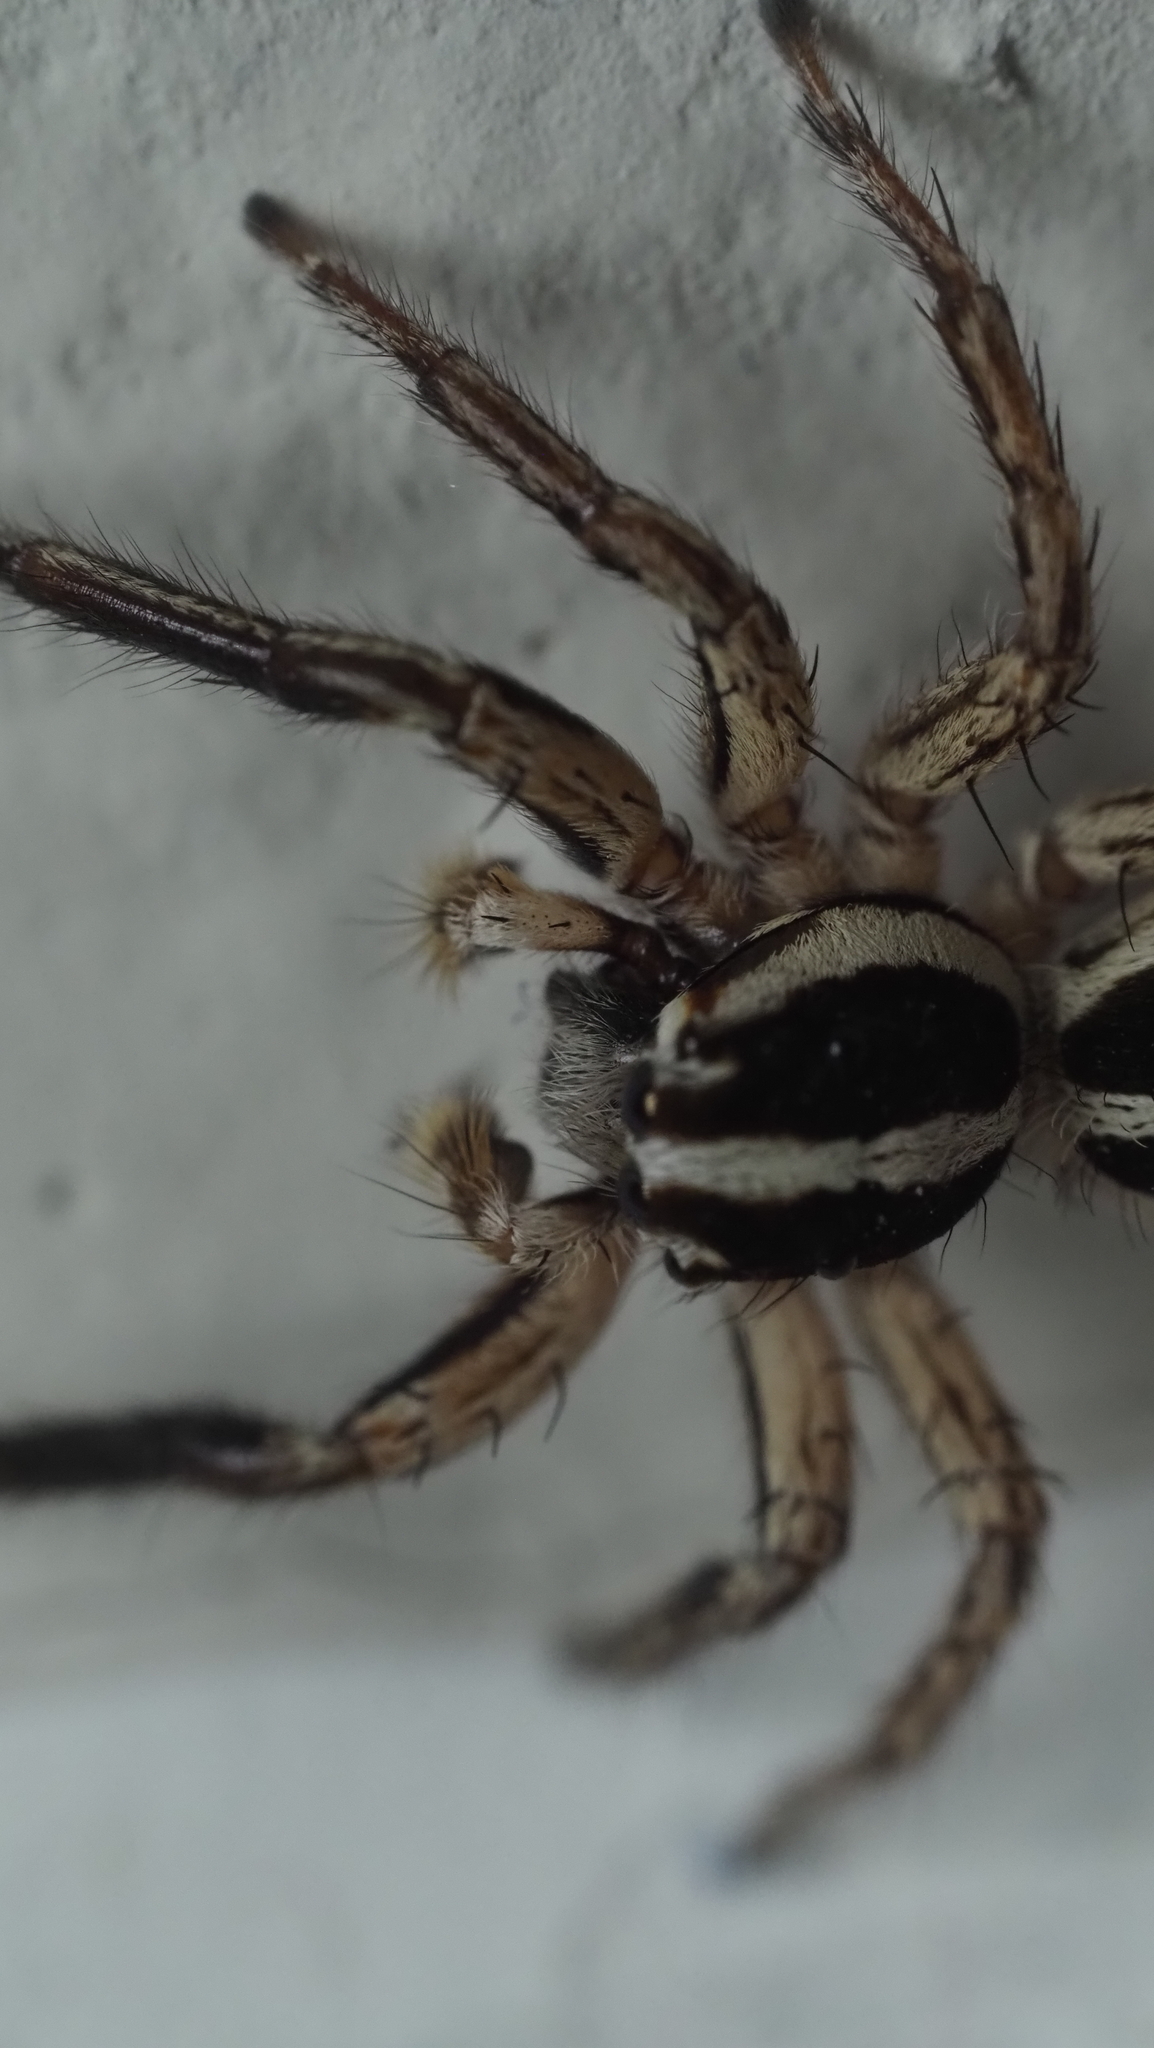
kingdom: Animalia
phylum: Arthropoda
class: Arachnida
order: Araneae
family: Salticidae
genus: Plexippus
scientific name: Plexippus paykulli
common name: Pantropical jumper
